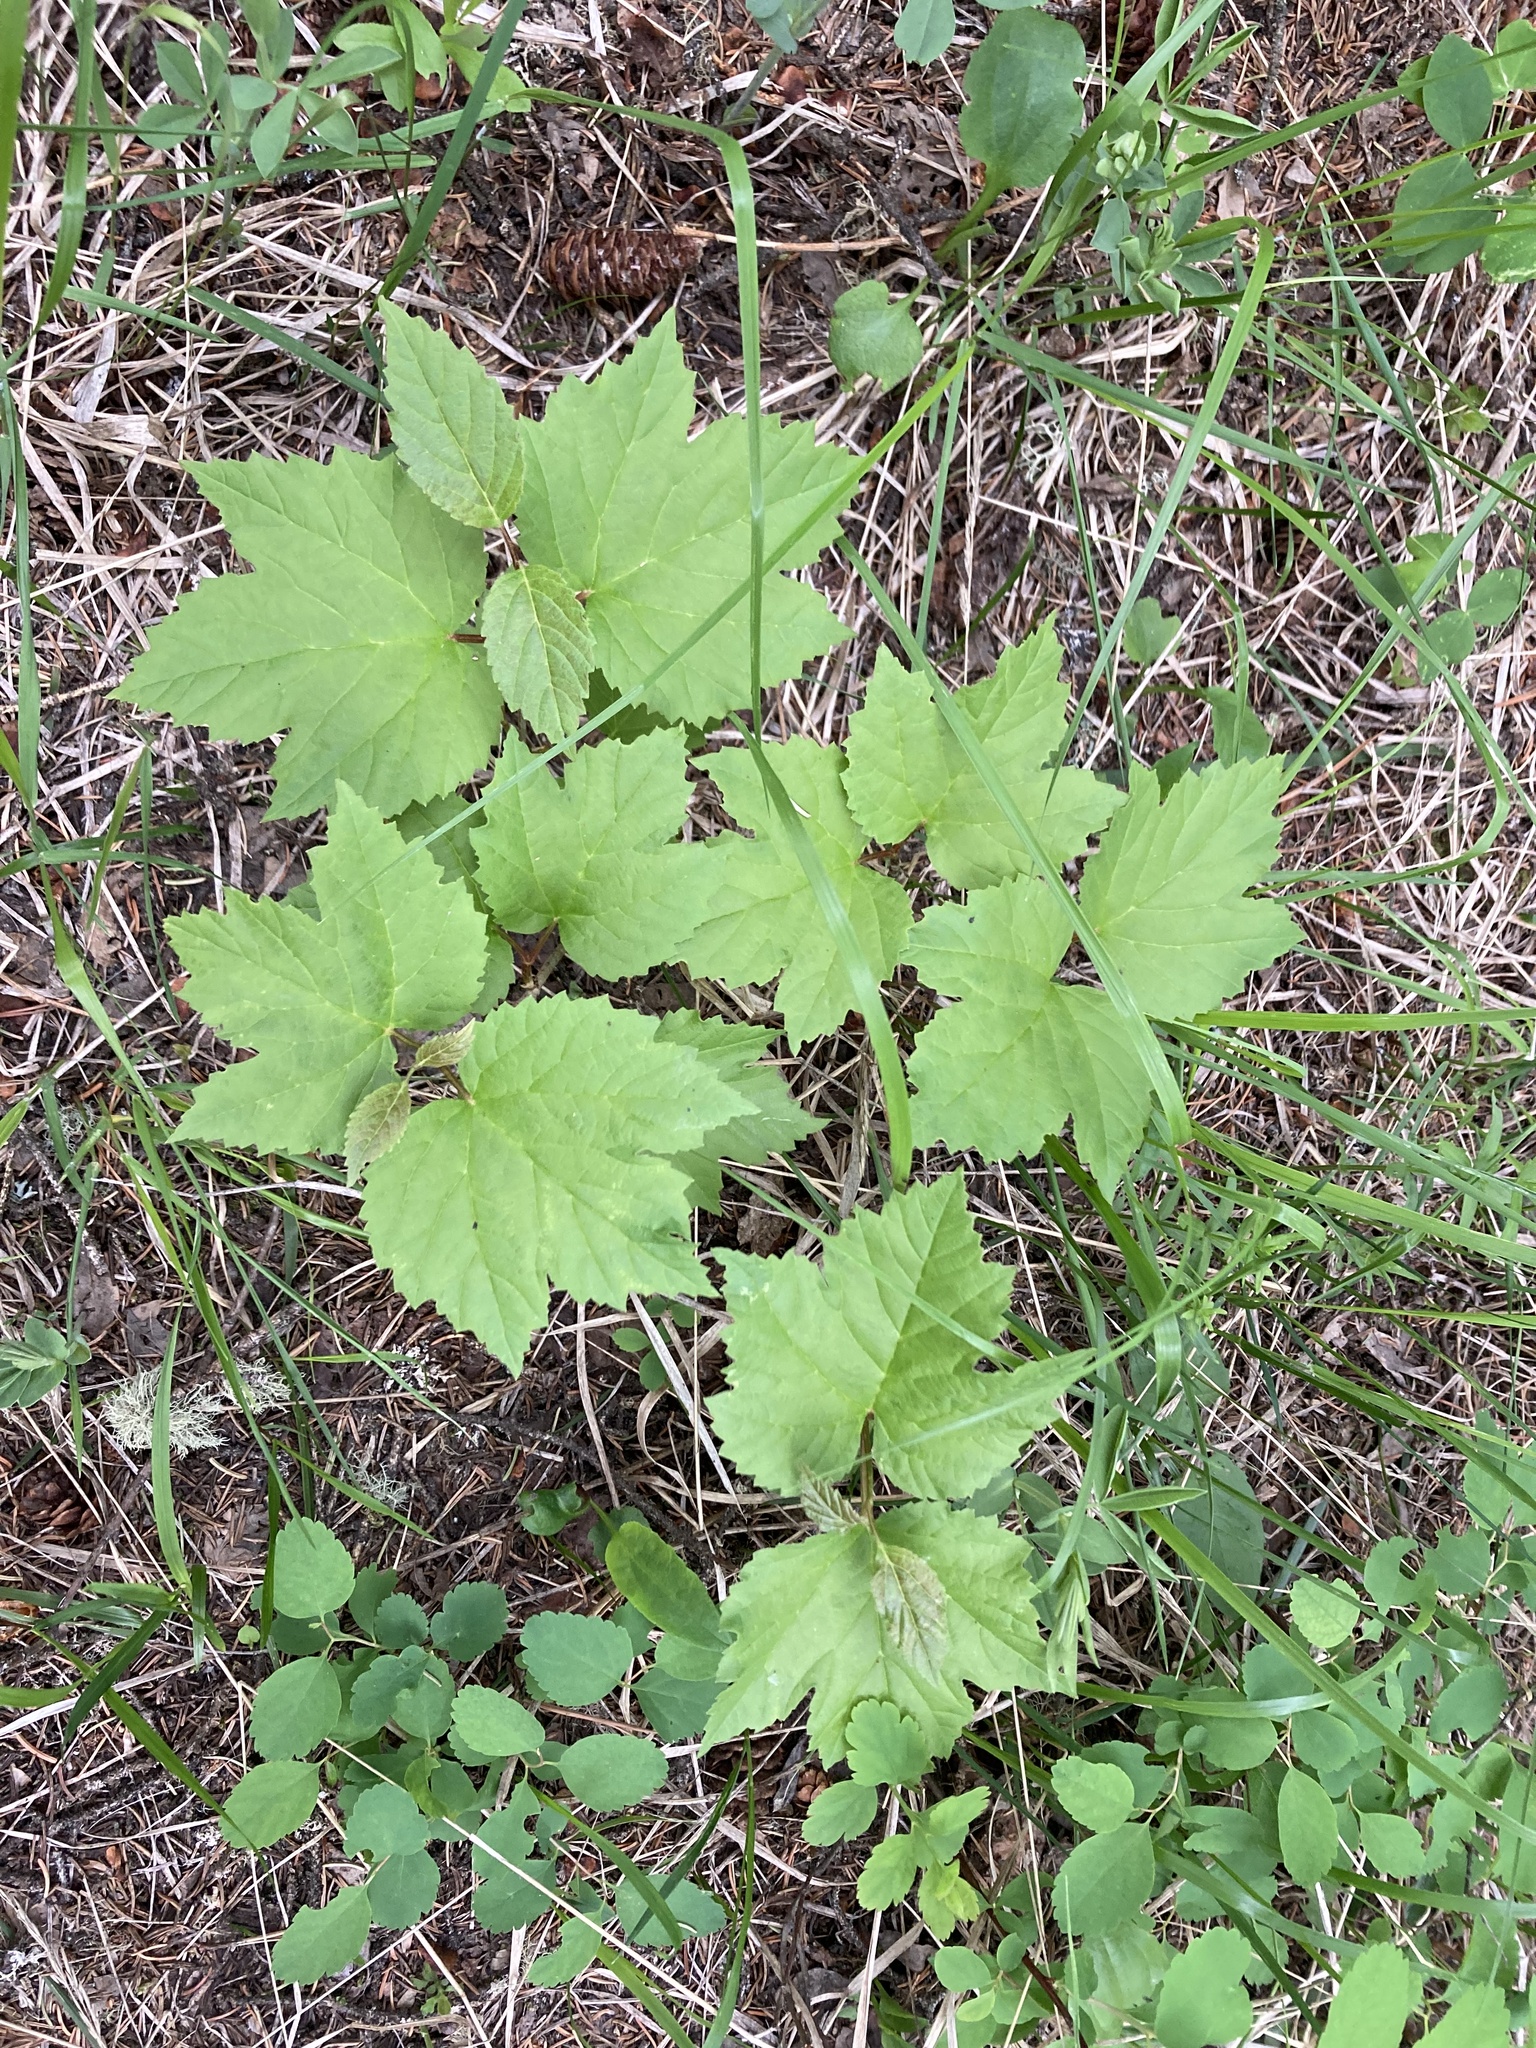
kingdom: Plantae
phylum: Tracheophyta
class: Magnoliopsida
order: Dipsacales
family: Viburnaceae
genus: Viburnum
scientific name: Viburnum edule
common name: Mooseberry
